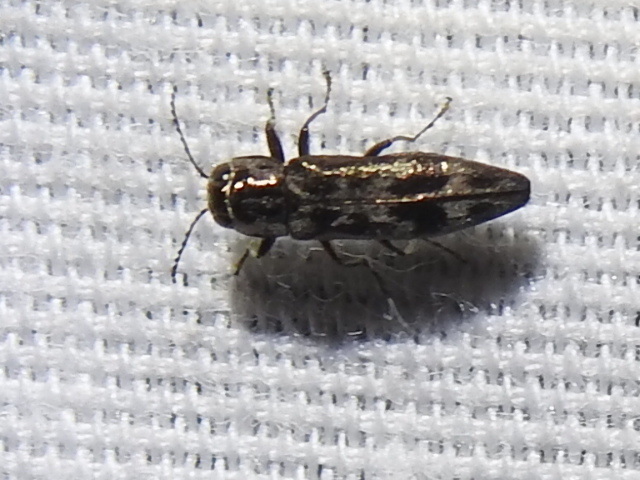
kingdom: Animalia
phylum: Arthropoda
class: Insecta
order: Coleoptera
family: Buprestidae
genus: Agrilus
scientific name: Agrilus lecontei
